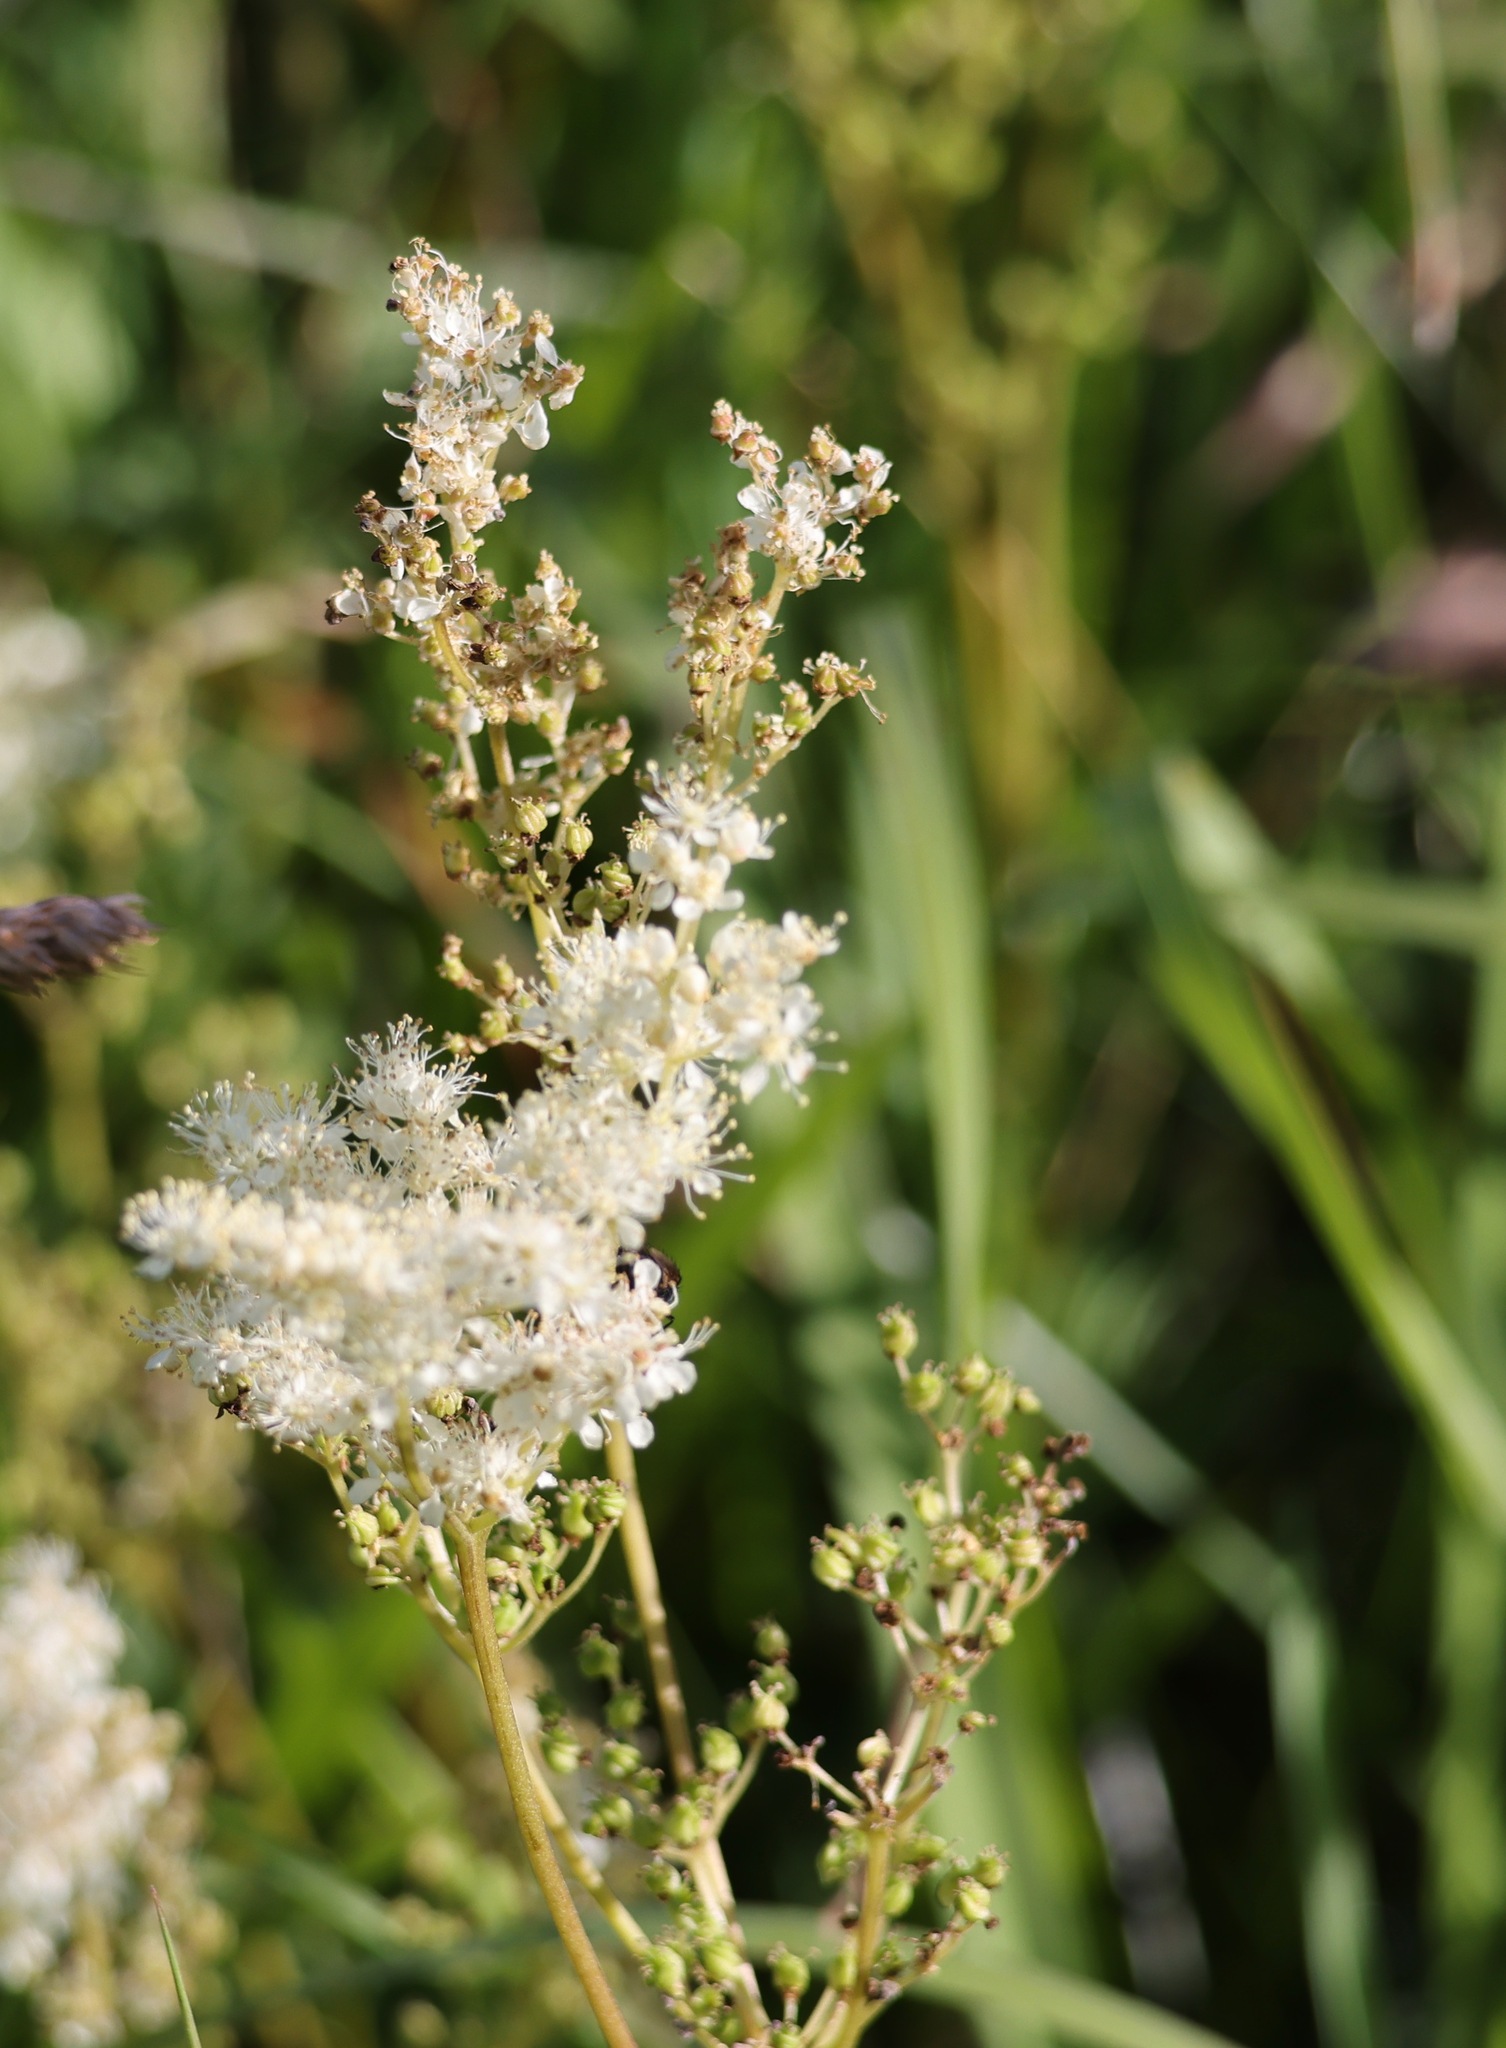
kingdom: Plantae
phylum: Tracheophyta
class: Magnoliopsida
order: Rosales
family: Rosaceae
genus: Filipendula
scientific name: Filipendula ulmaria
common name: Meadowsweet
